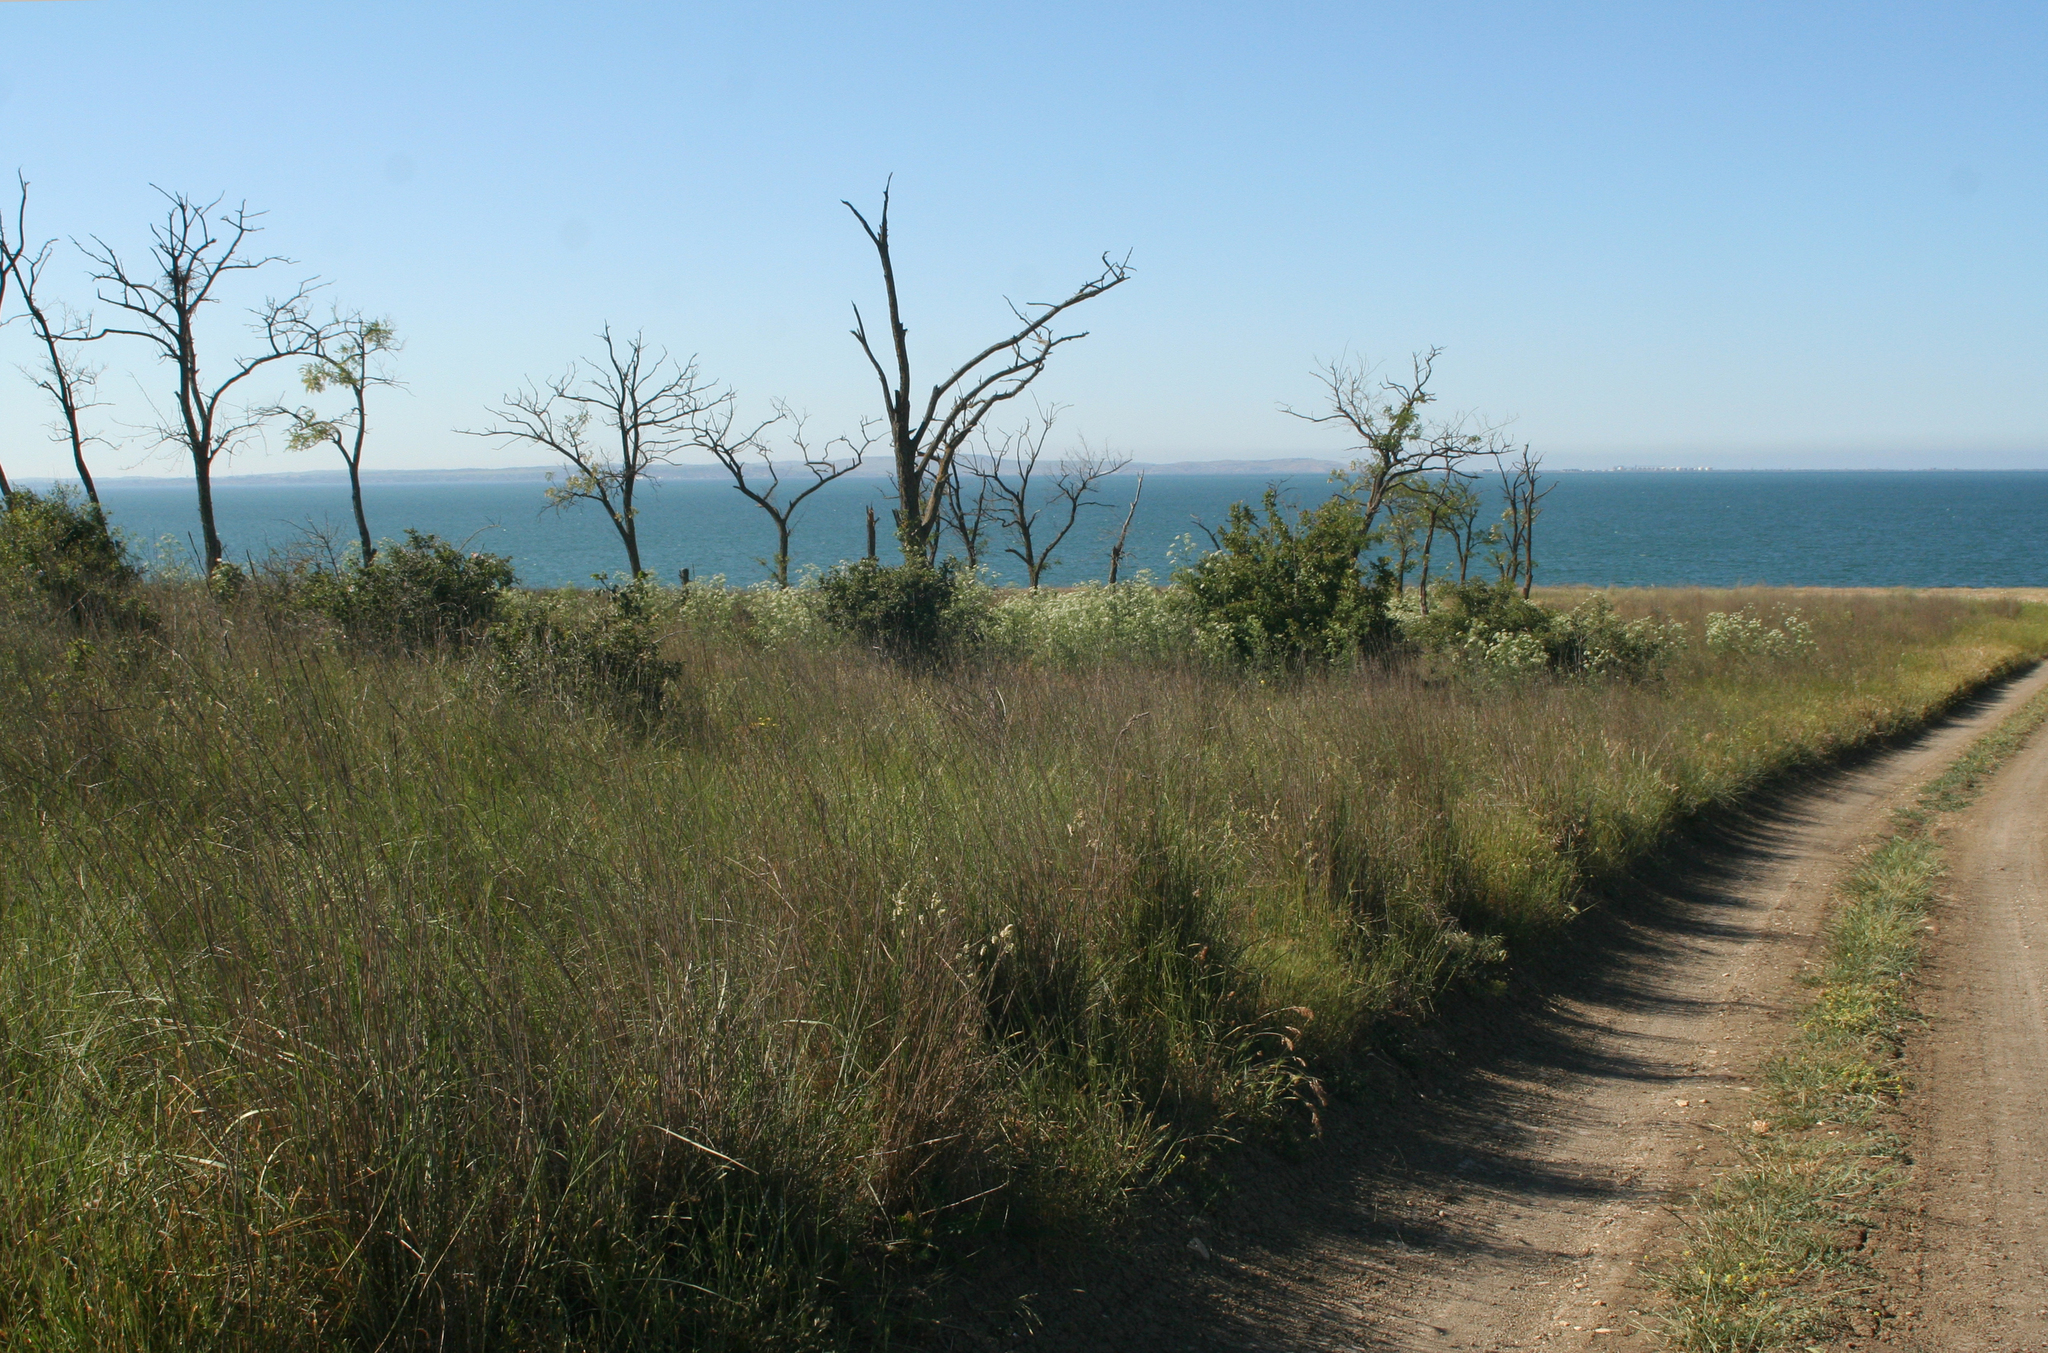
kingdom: Plantae
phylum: Tracheophyta
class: Magnoliopsida
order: Fabales
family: Fabaceae
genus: Robinia
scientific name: Robinia pseudoacacia
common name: Black locust
